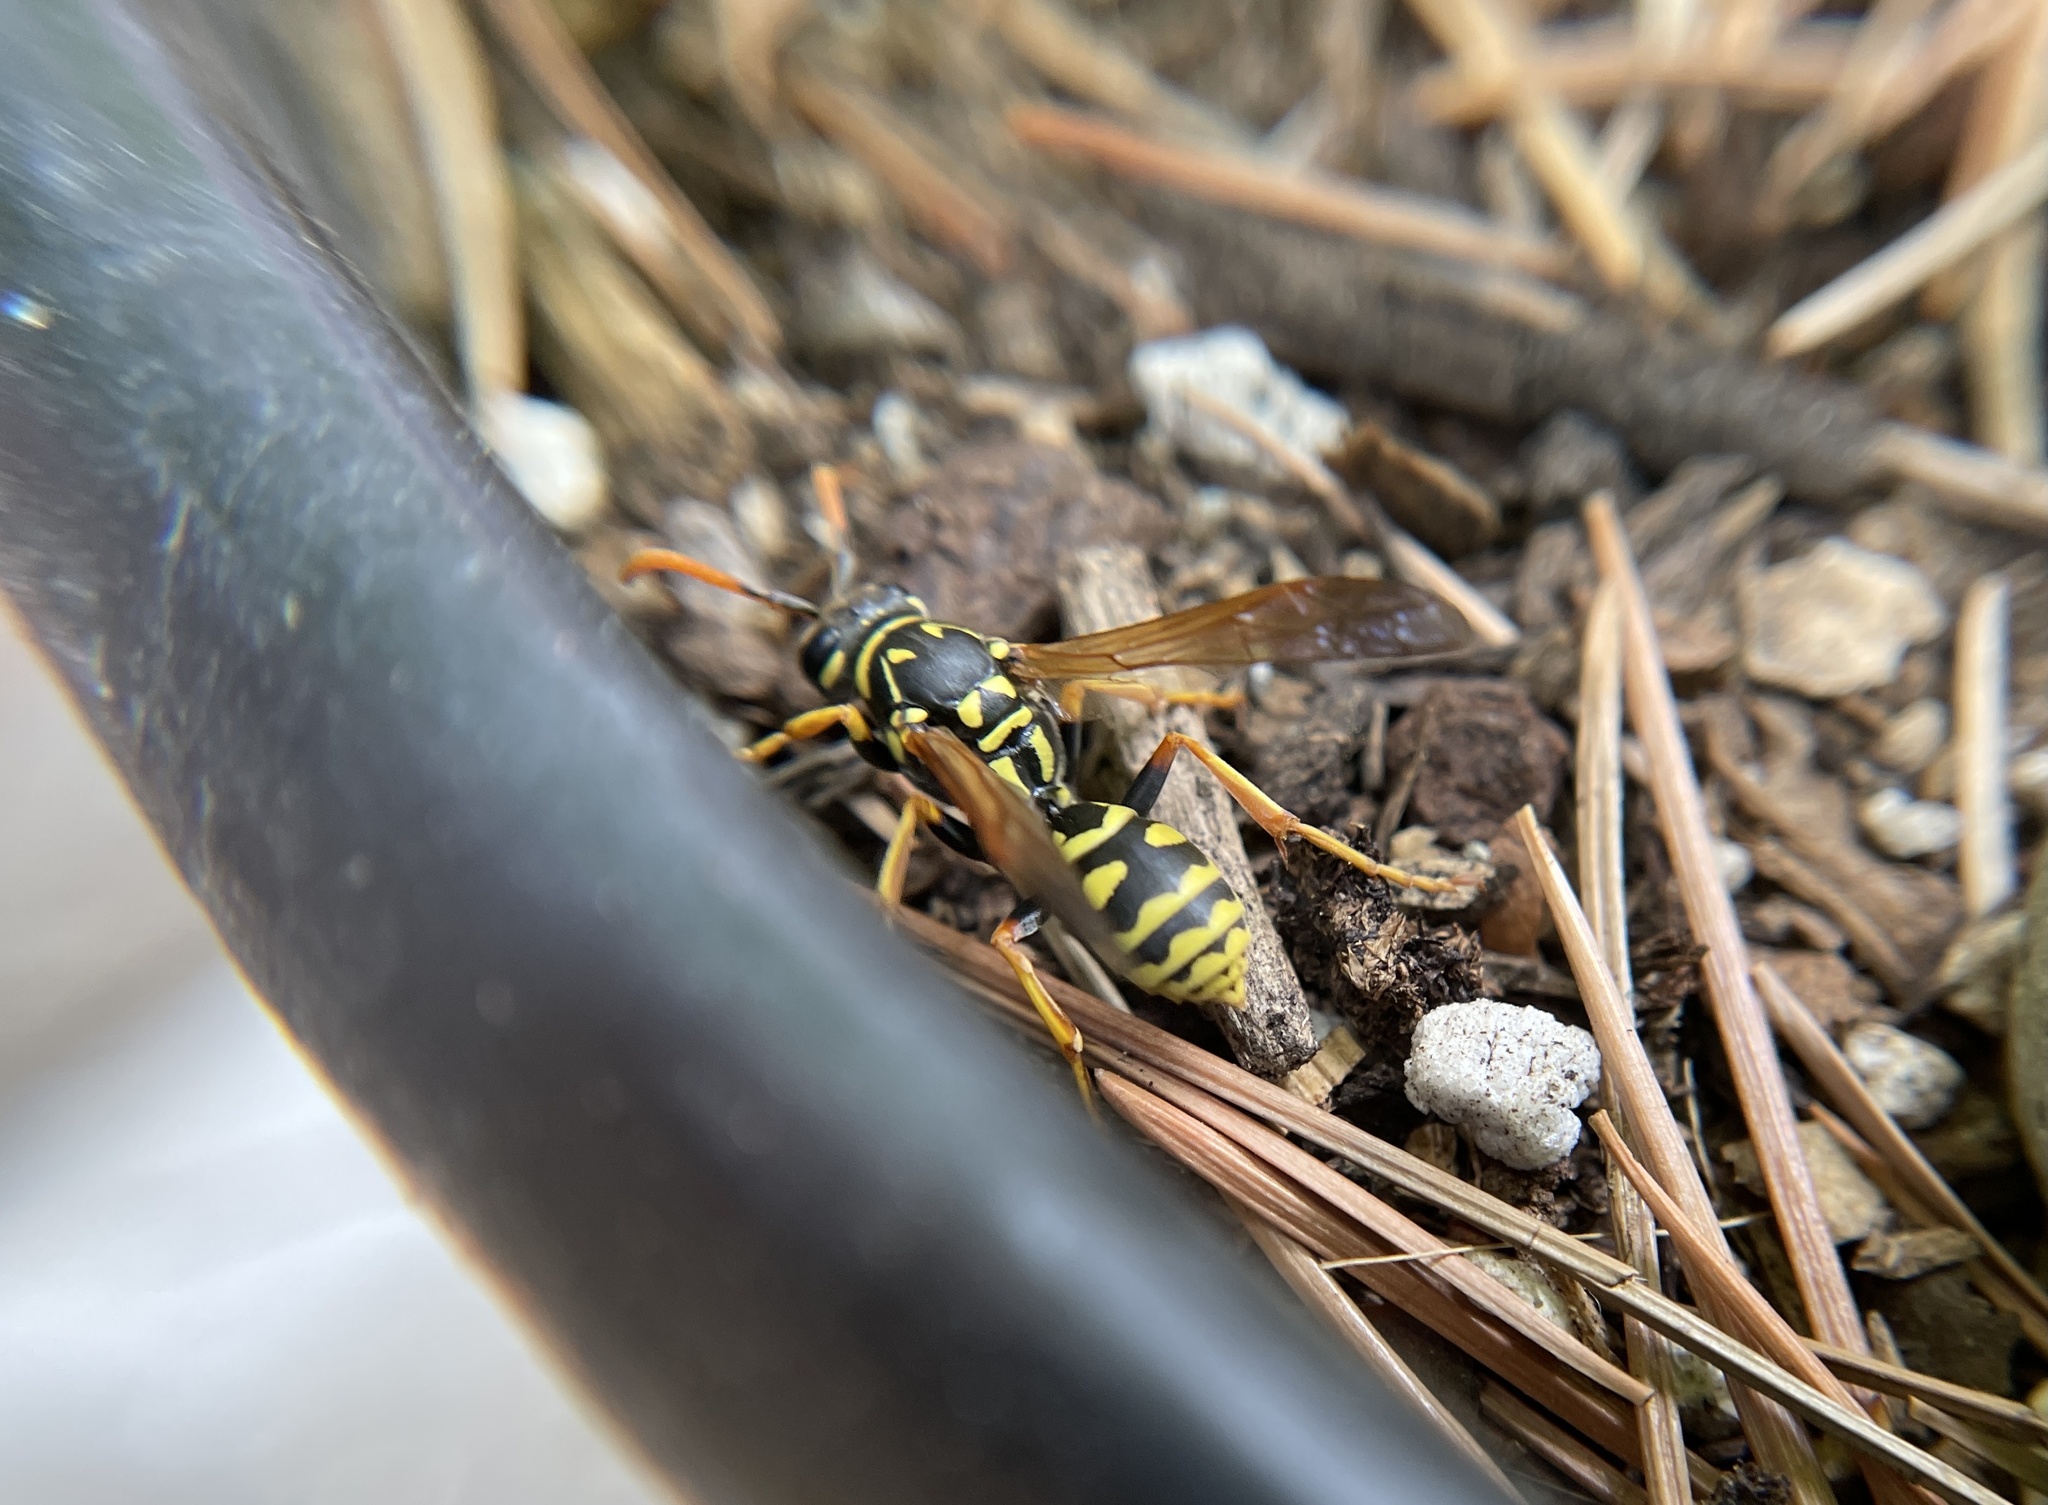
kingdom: Animalia
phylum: Arthropoda
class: Insecta
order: Hymenoptera
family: Eumenidae
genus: Polistes
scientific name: Polistes dominula
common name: Paper wasp
